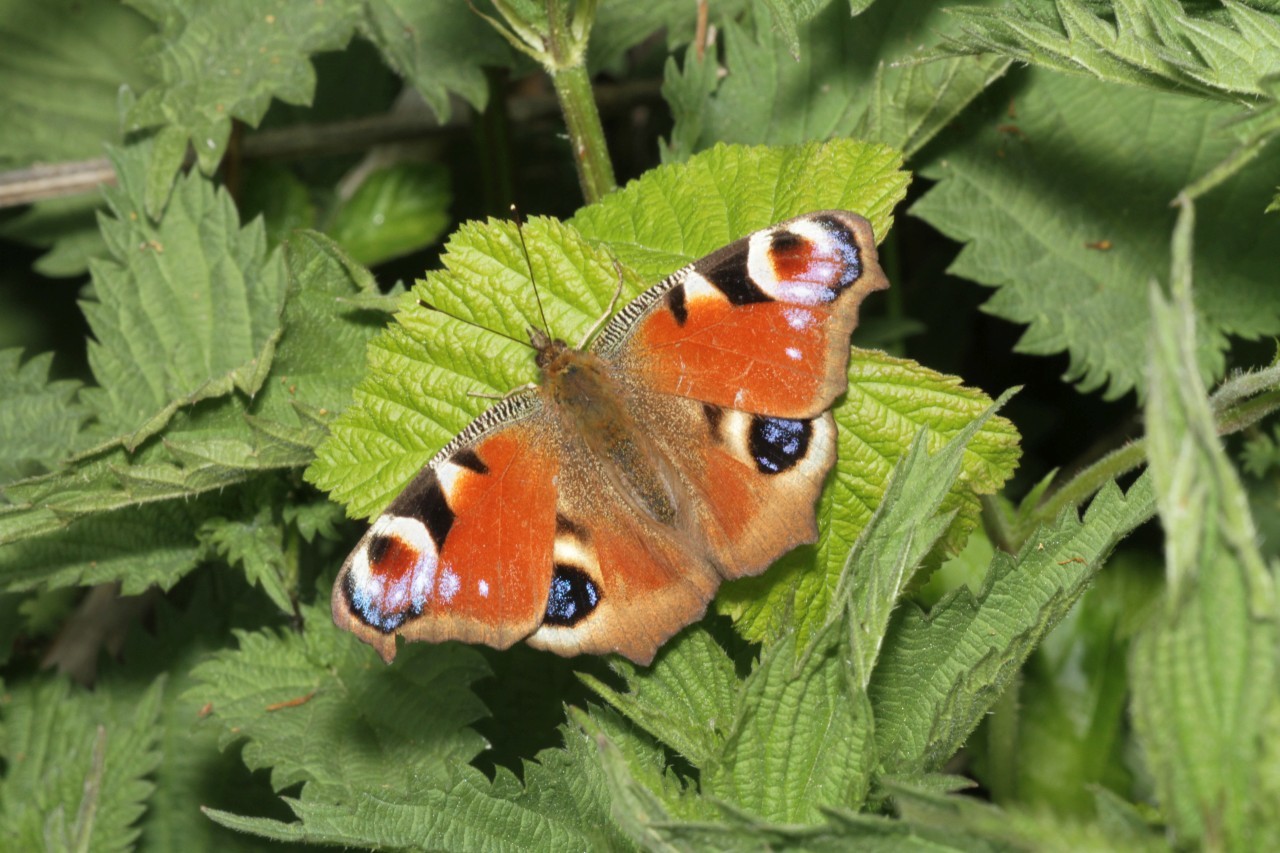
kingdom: Animalia
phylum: Arthropoda
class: Insecta
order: Lepidoptera
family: Nymphalidae
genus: Aglais
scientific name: Aglais io
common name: Peacock
